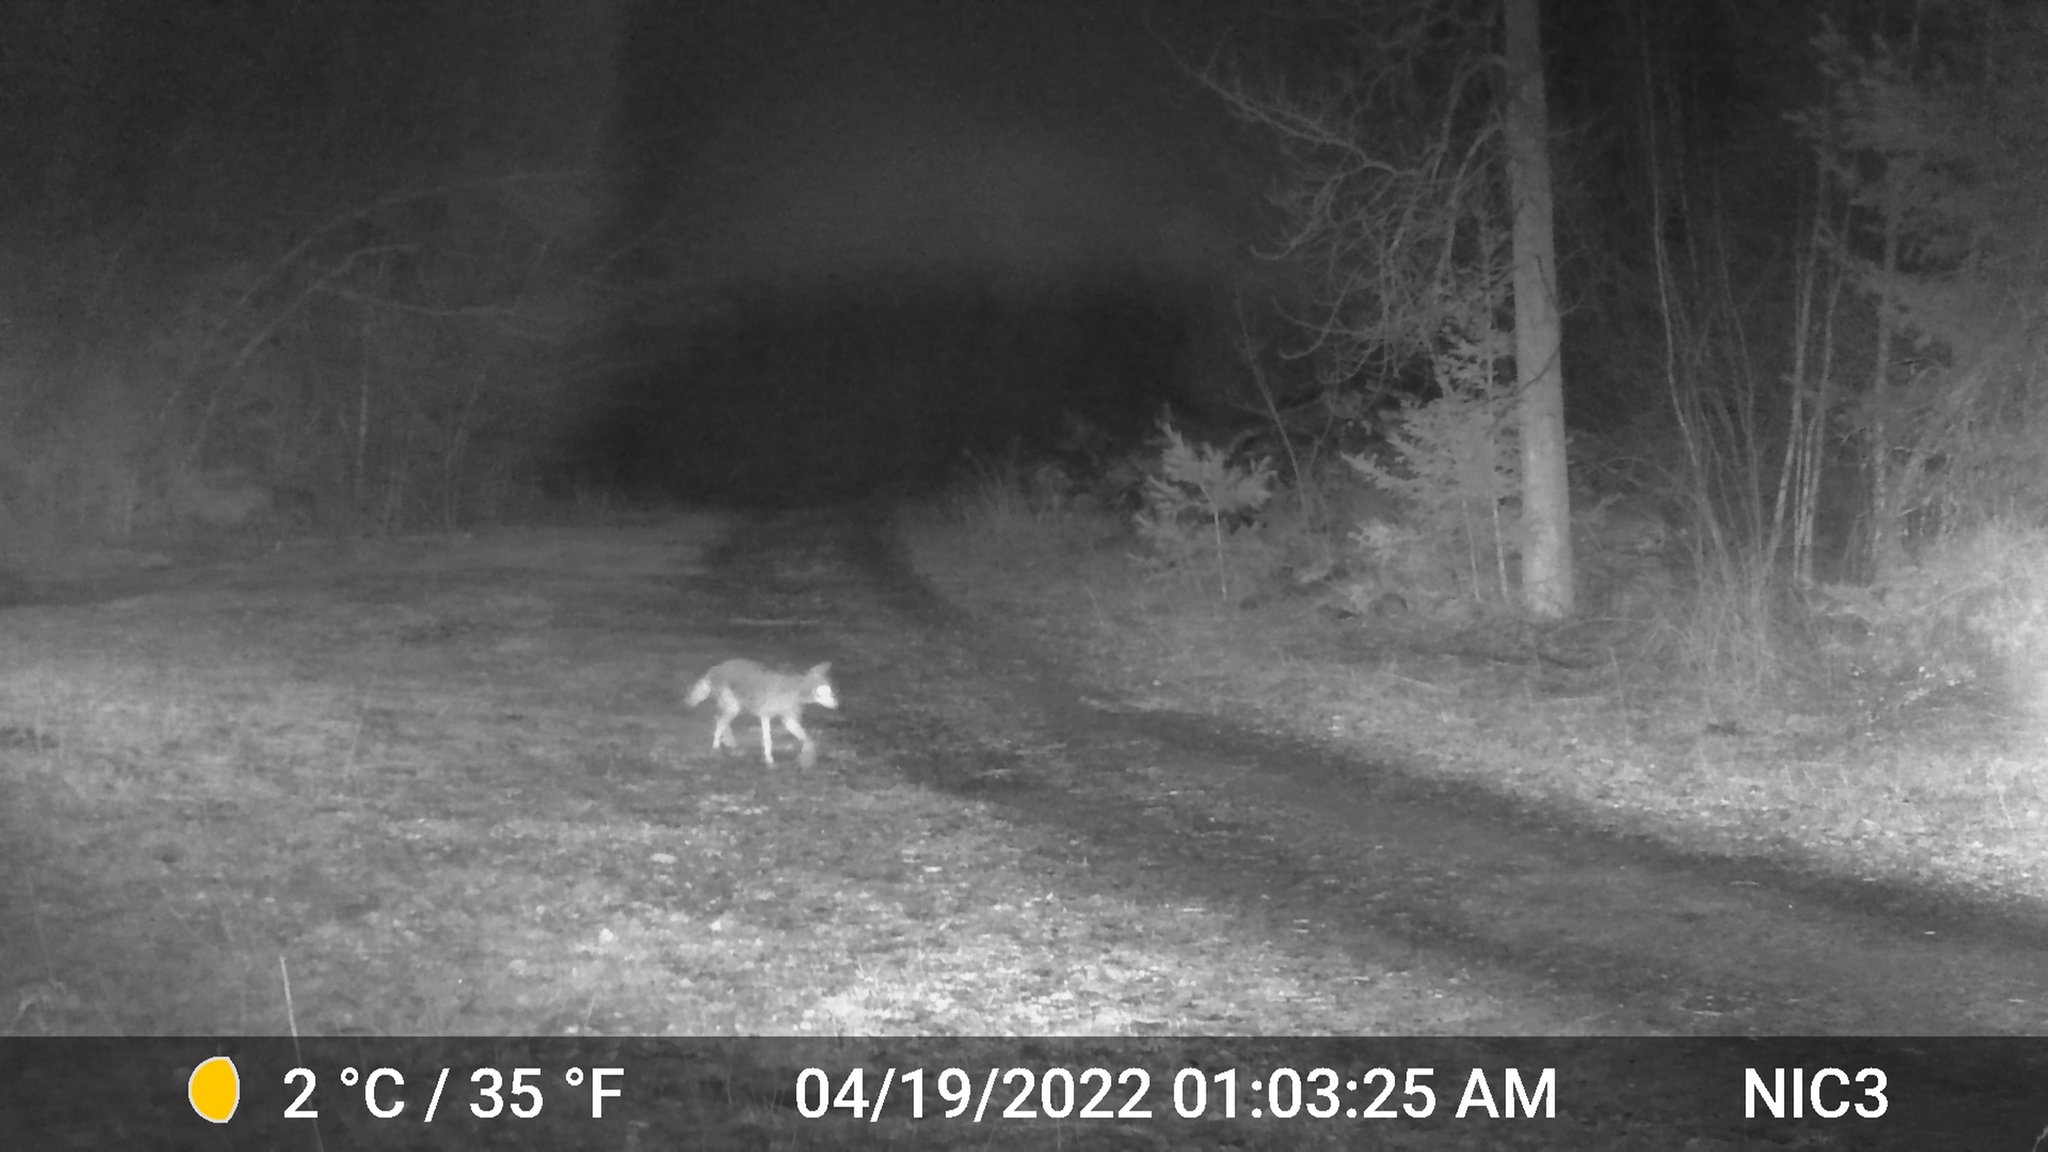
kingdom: Animalia
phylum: Chordata
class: Mammalia
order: Carnivora
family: Canidae
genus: Canis
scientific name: Canis latrans
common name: Coyote
